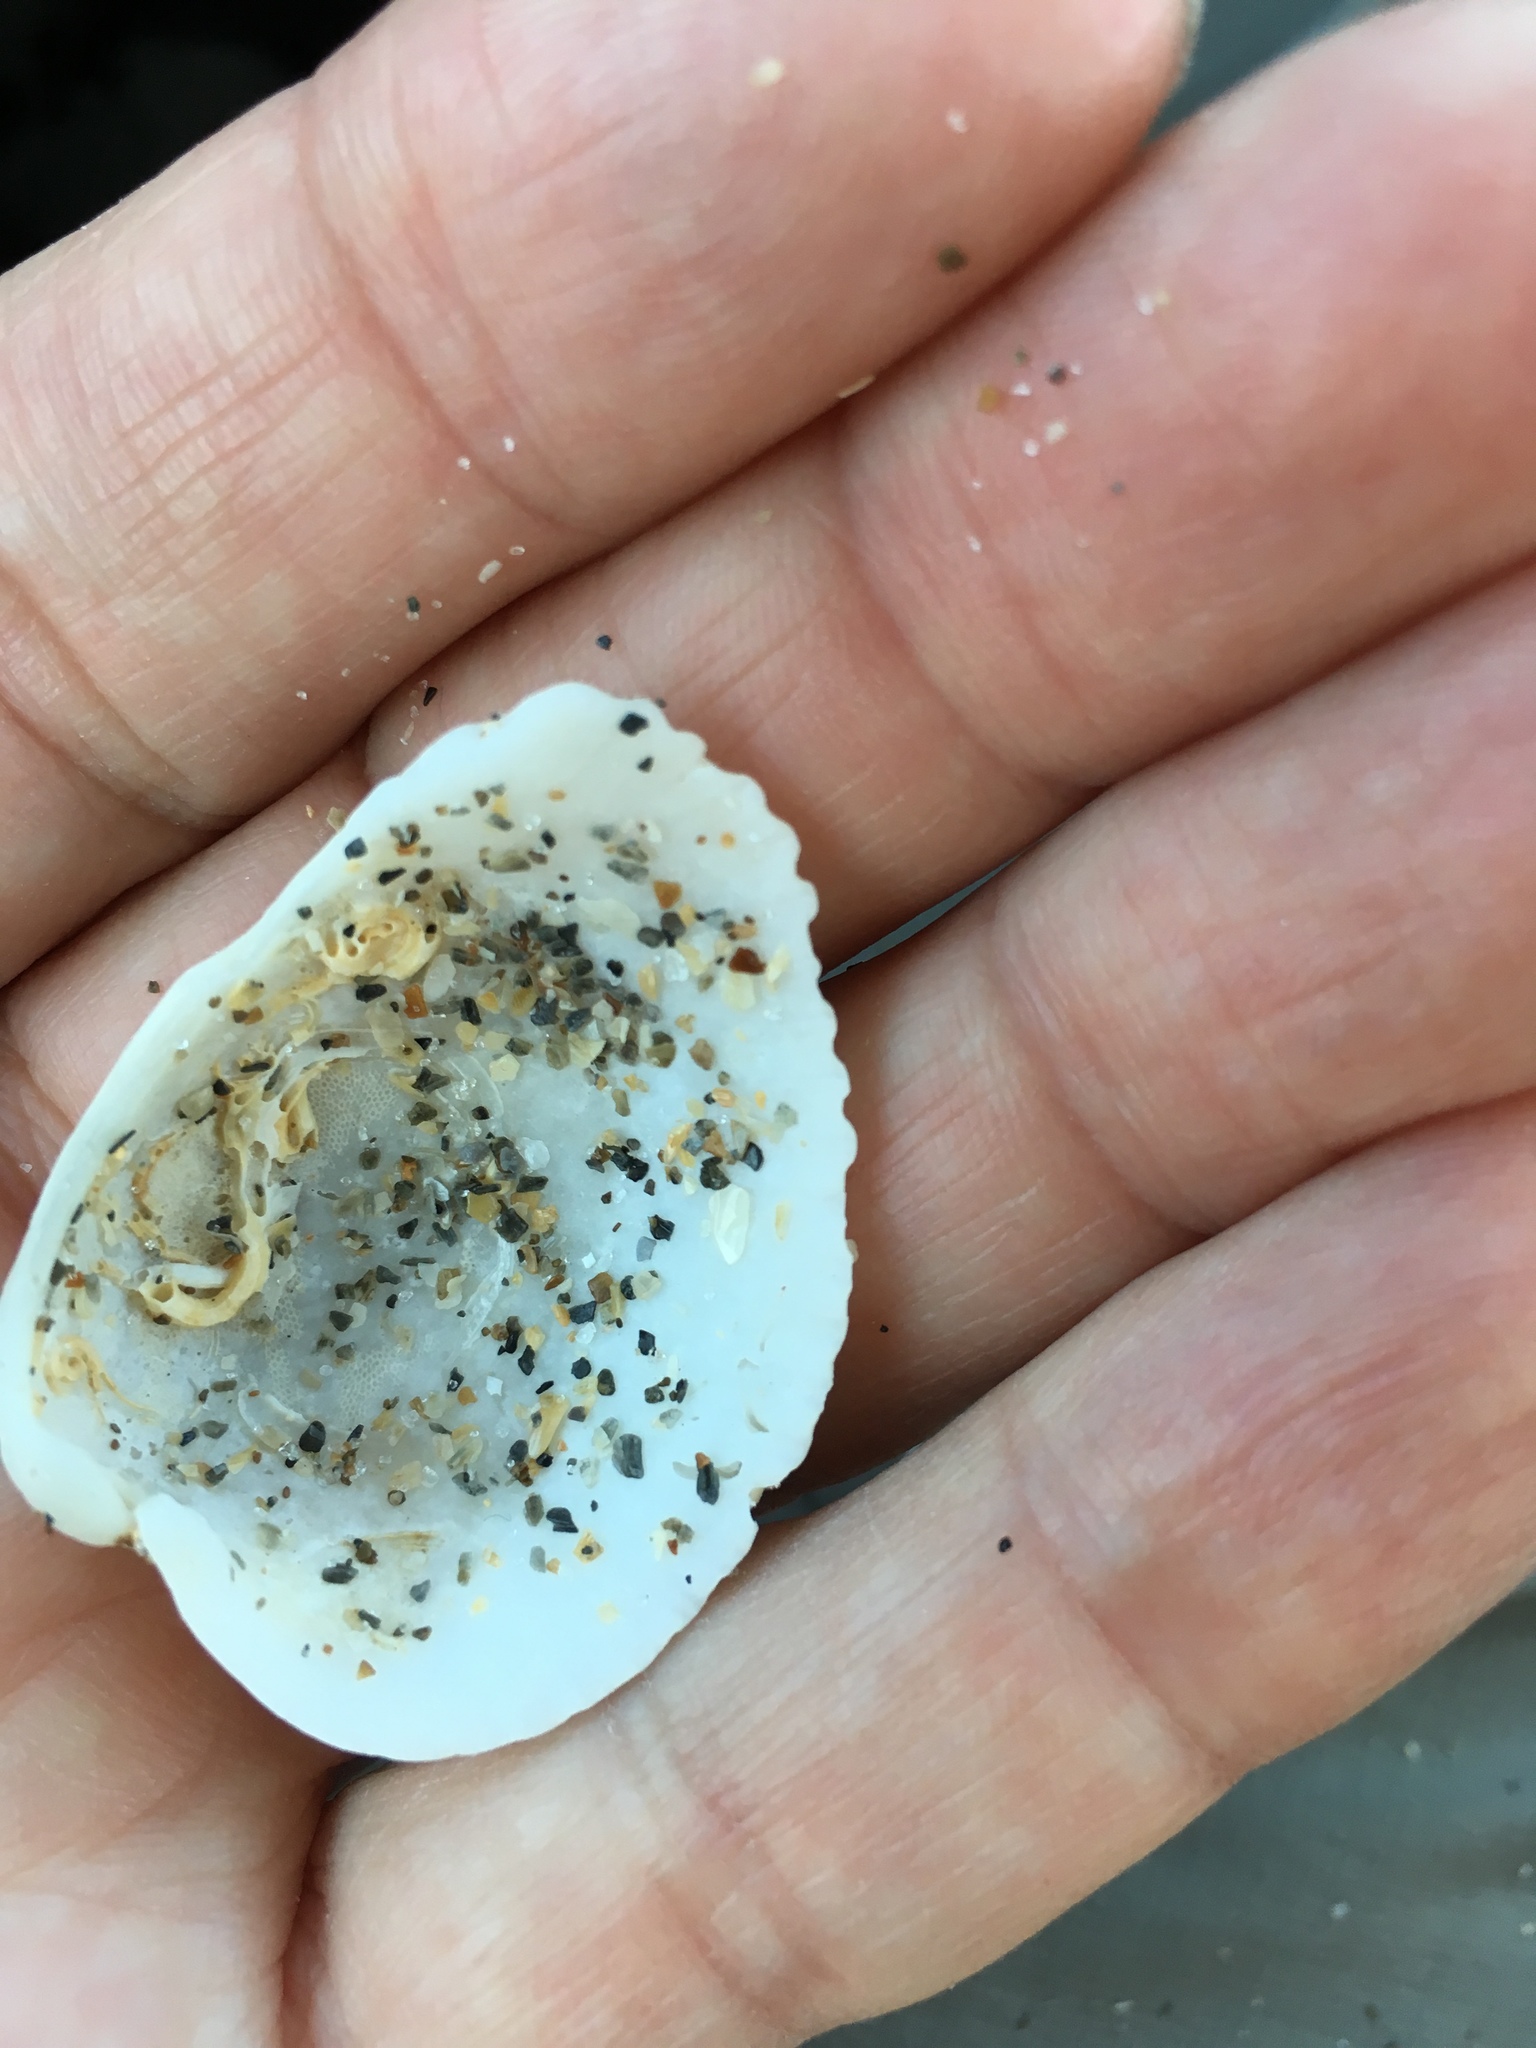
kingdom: Animalia
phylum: Mollusca
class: Bivalvia
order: Arcida
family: Arcidae
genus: Lunarca
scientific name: Lunarca ovalis
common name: Blood ark
